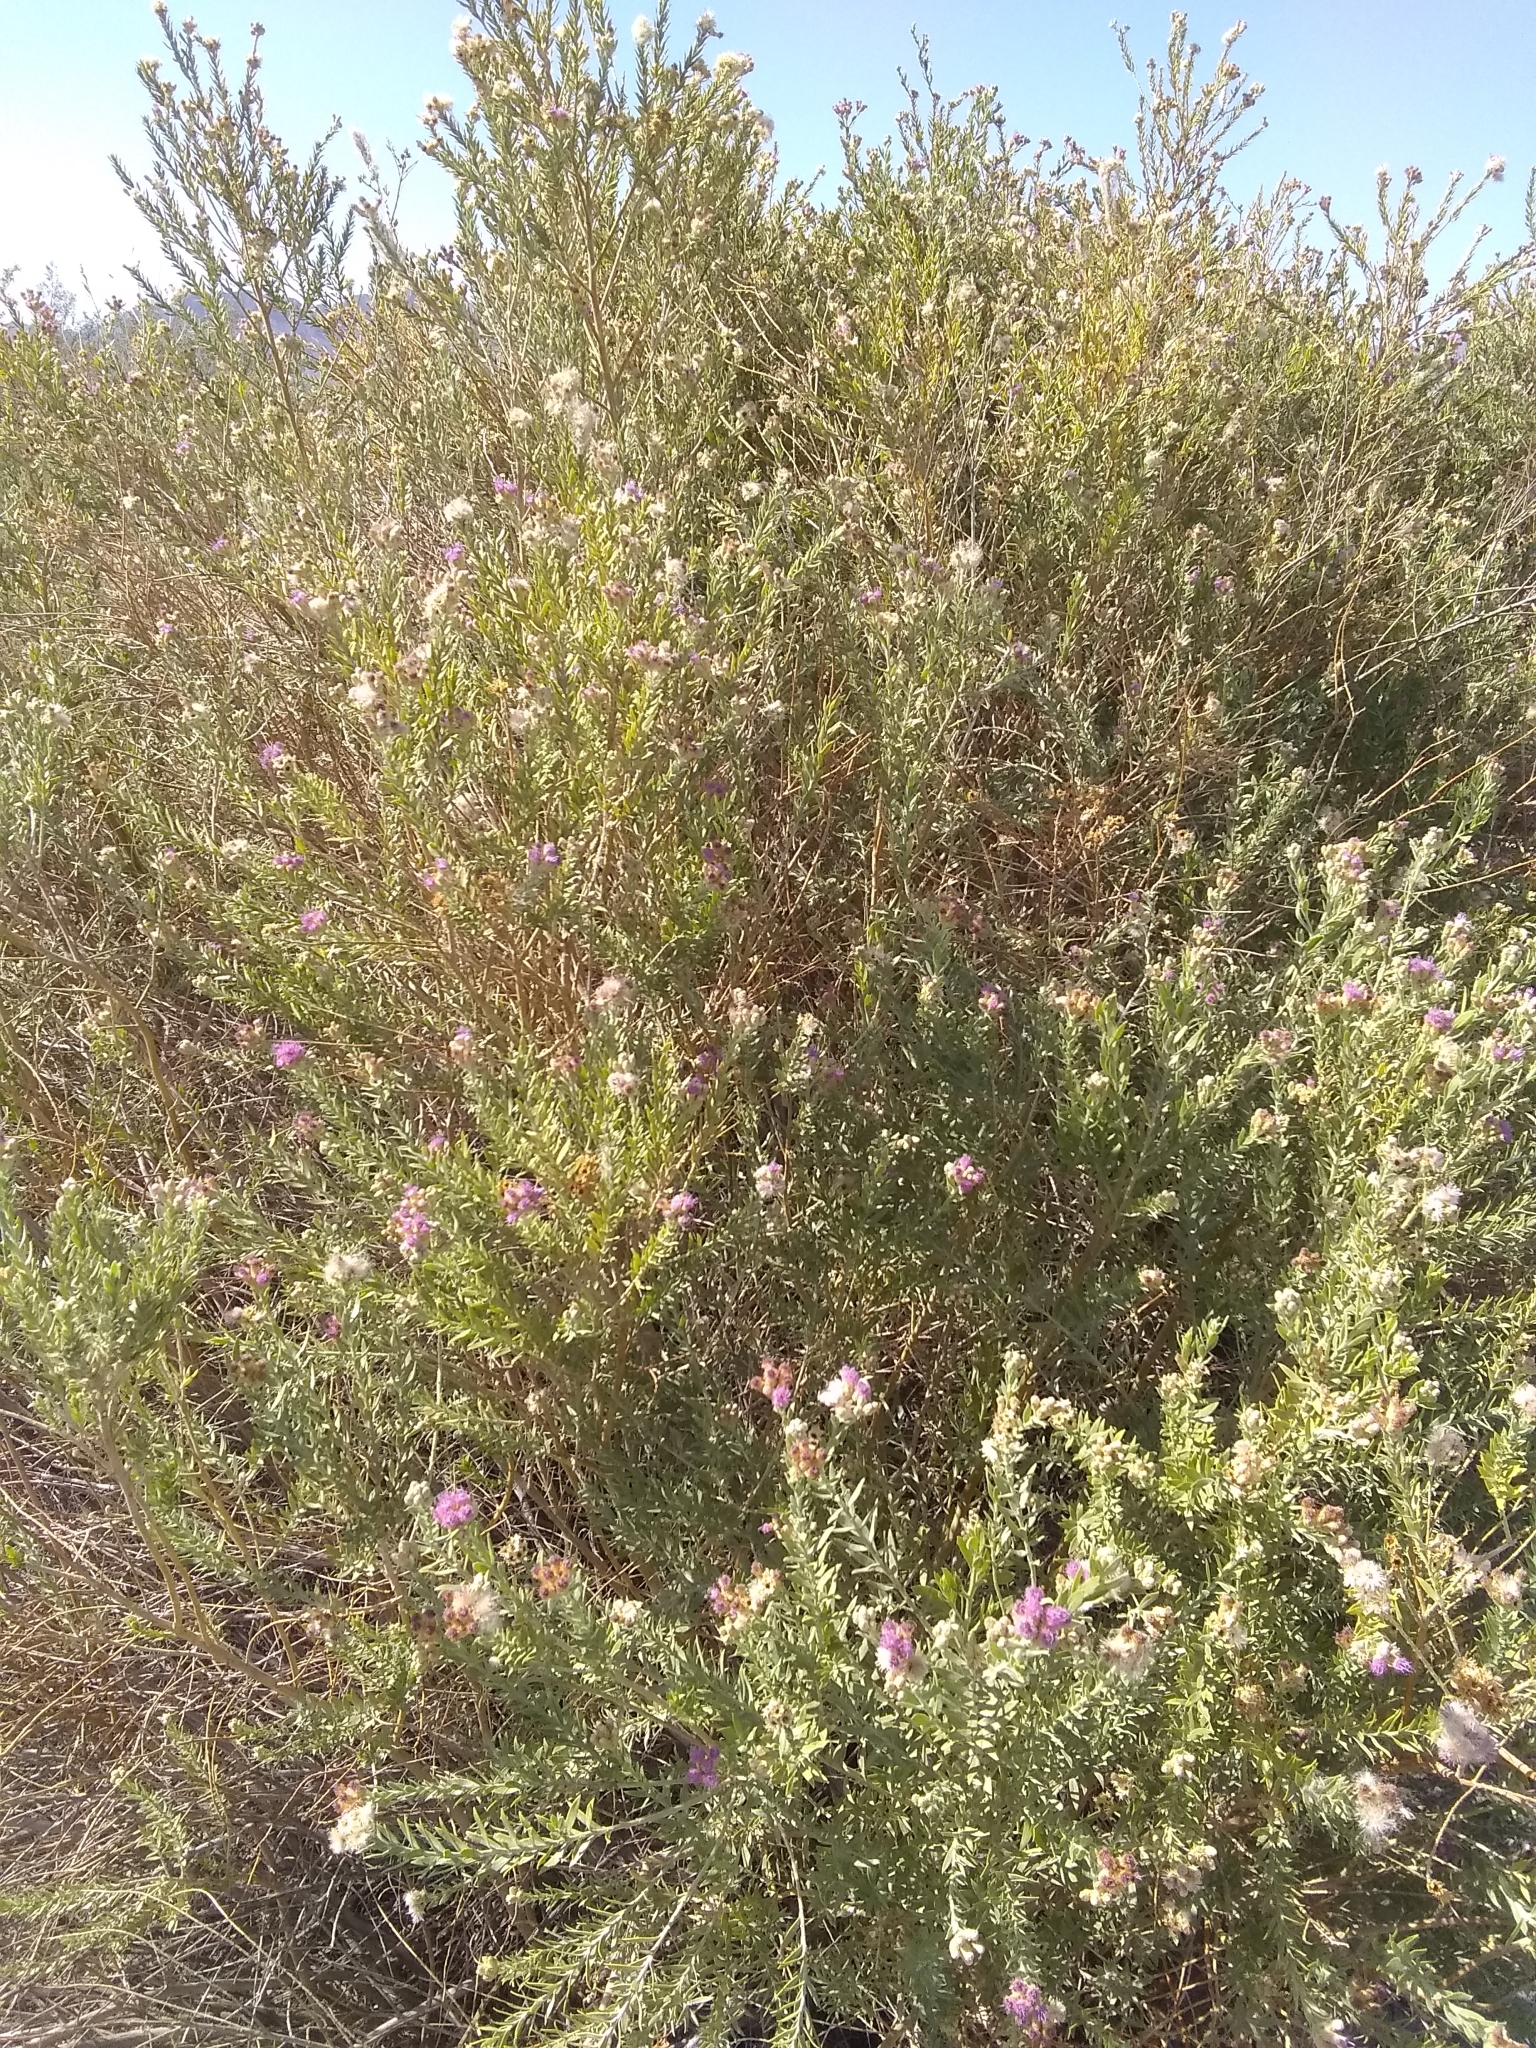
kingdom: Plantae
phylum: Tracheophyta
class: Magnoliopsida
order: Asterales
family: Asteraceae
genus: Pluchea
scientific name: Pluchea sericea
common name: Arrow-weed
